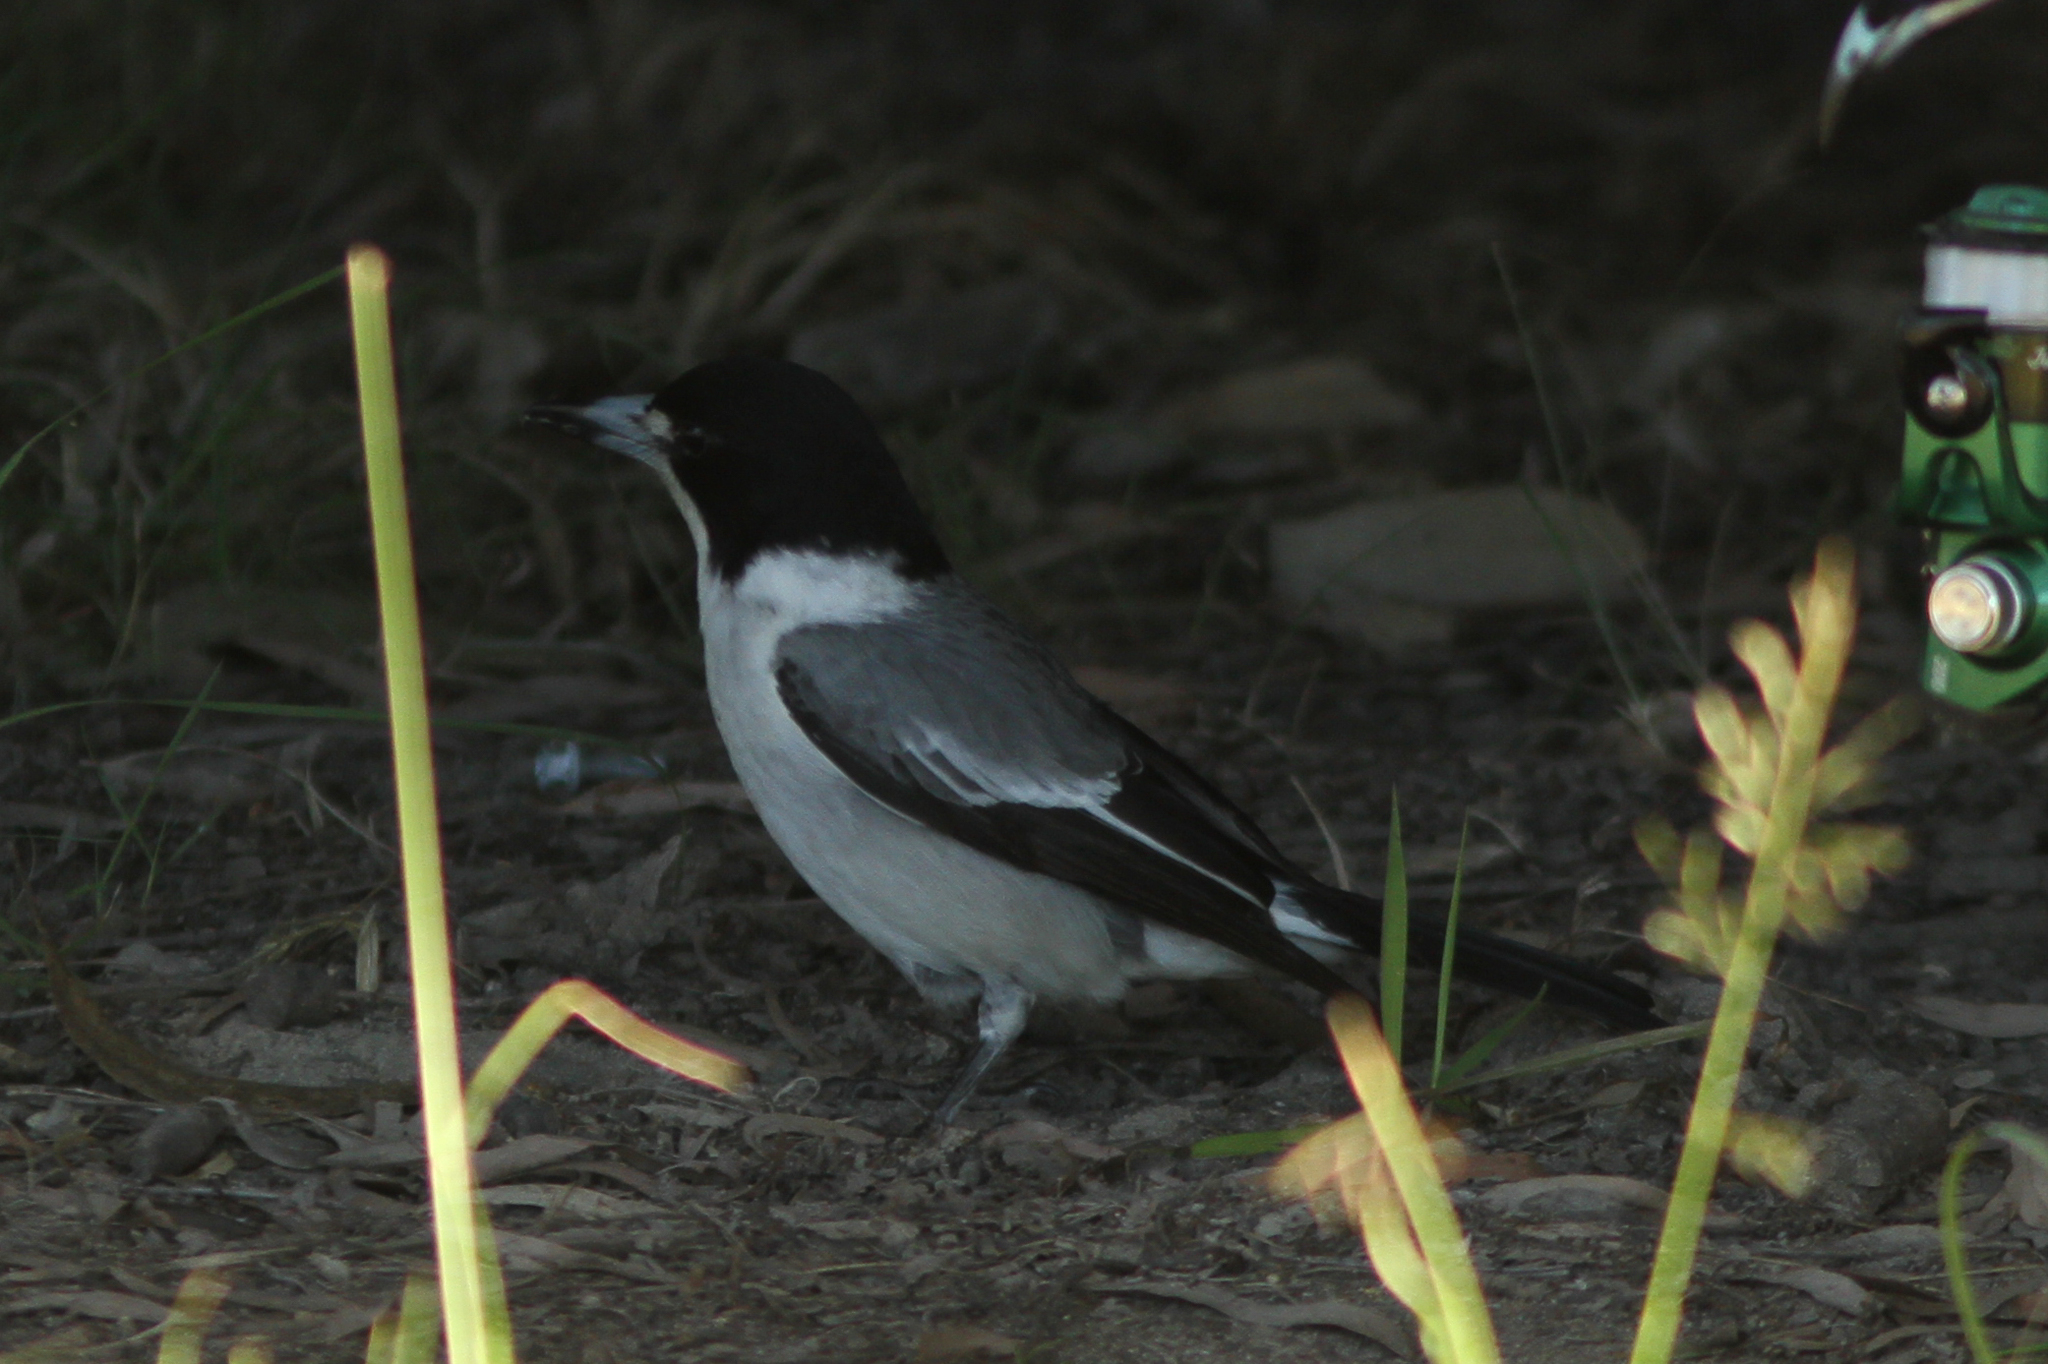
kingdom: Animalia
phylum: Chordata
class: Aves
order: Passeriformes
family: Cracticidae
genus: Cracticus
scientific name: Cracticus torquatus
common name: Grey butcherbird
